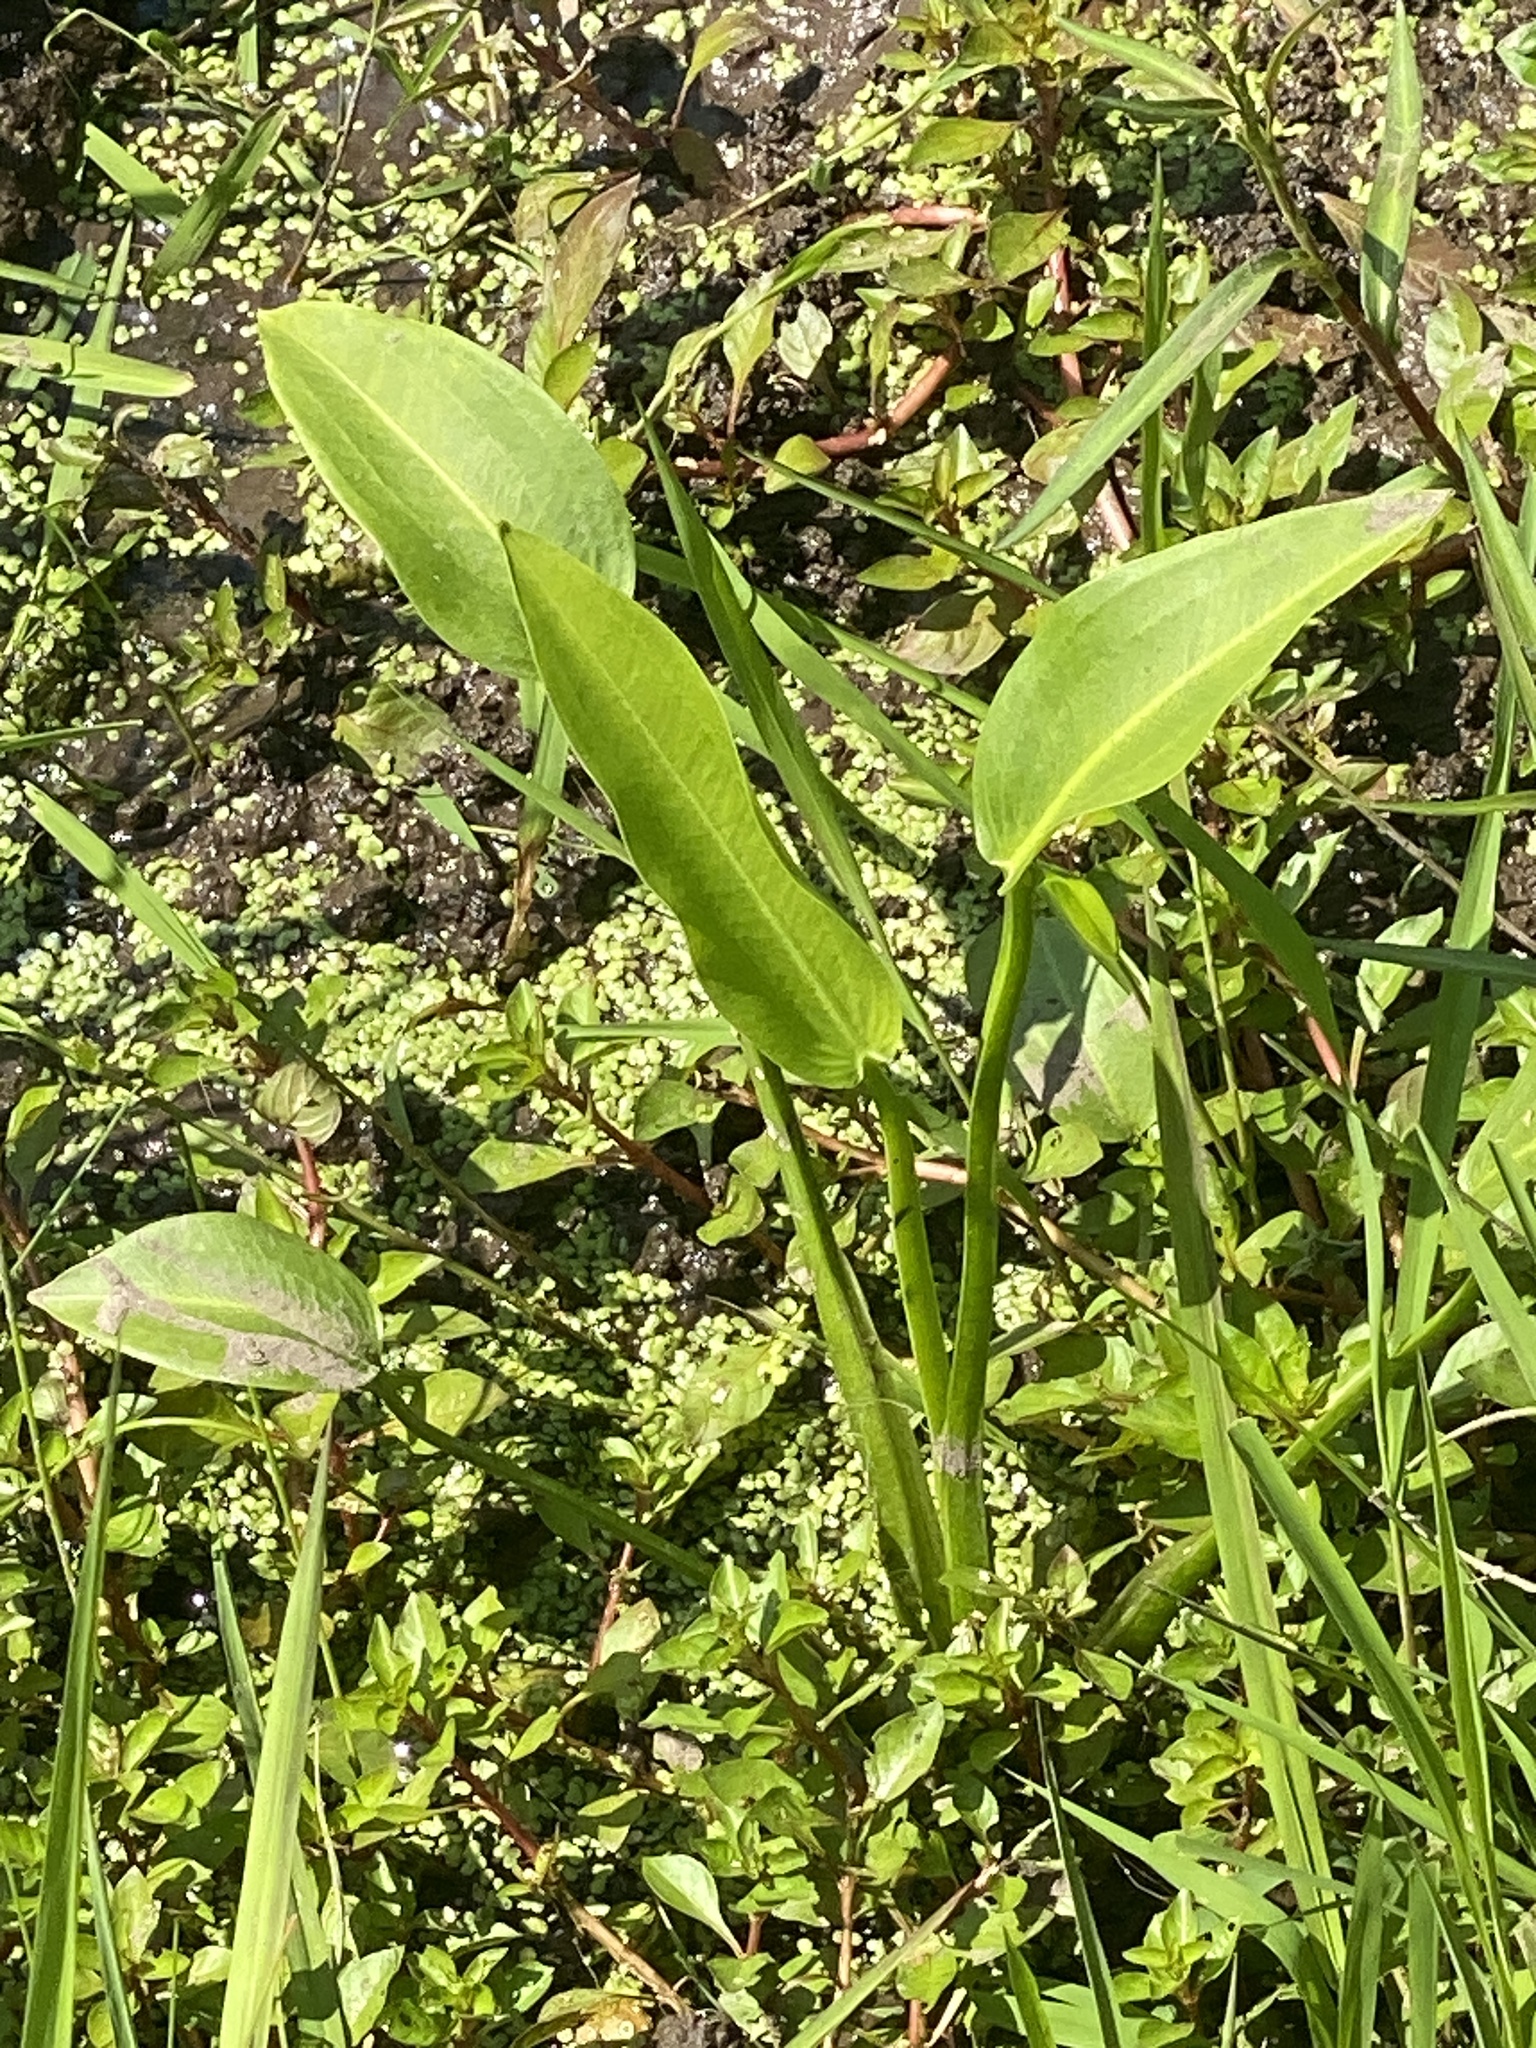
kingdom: Plantae
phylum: Tracheophyta
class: Liliopsida
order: Alismatales
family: Alismataceae
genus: Sagittaria
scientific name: Sagittaria platyphylla
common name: Broad-leaf arrowhead
